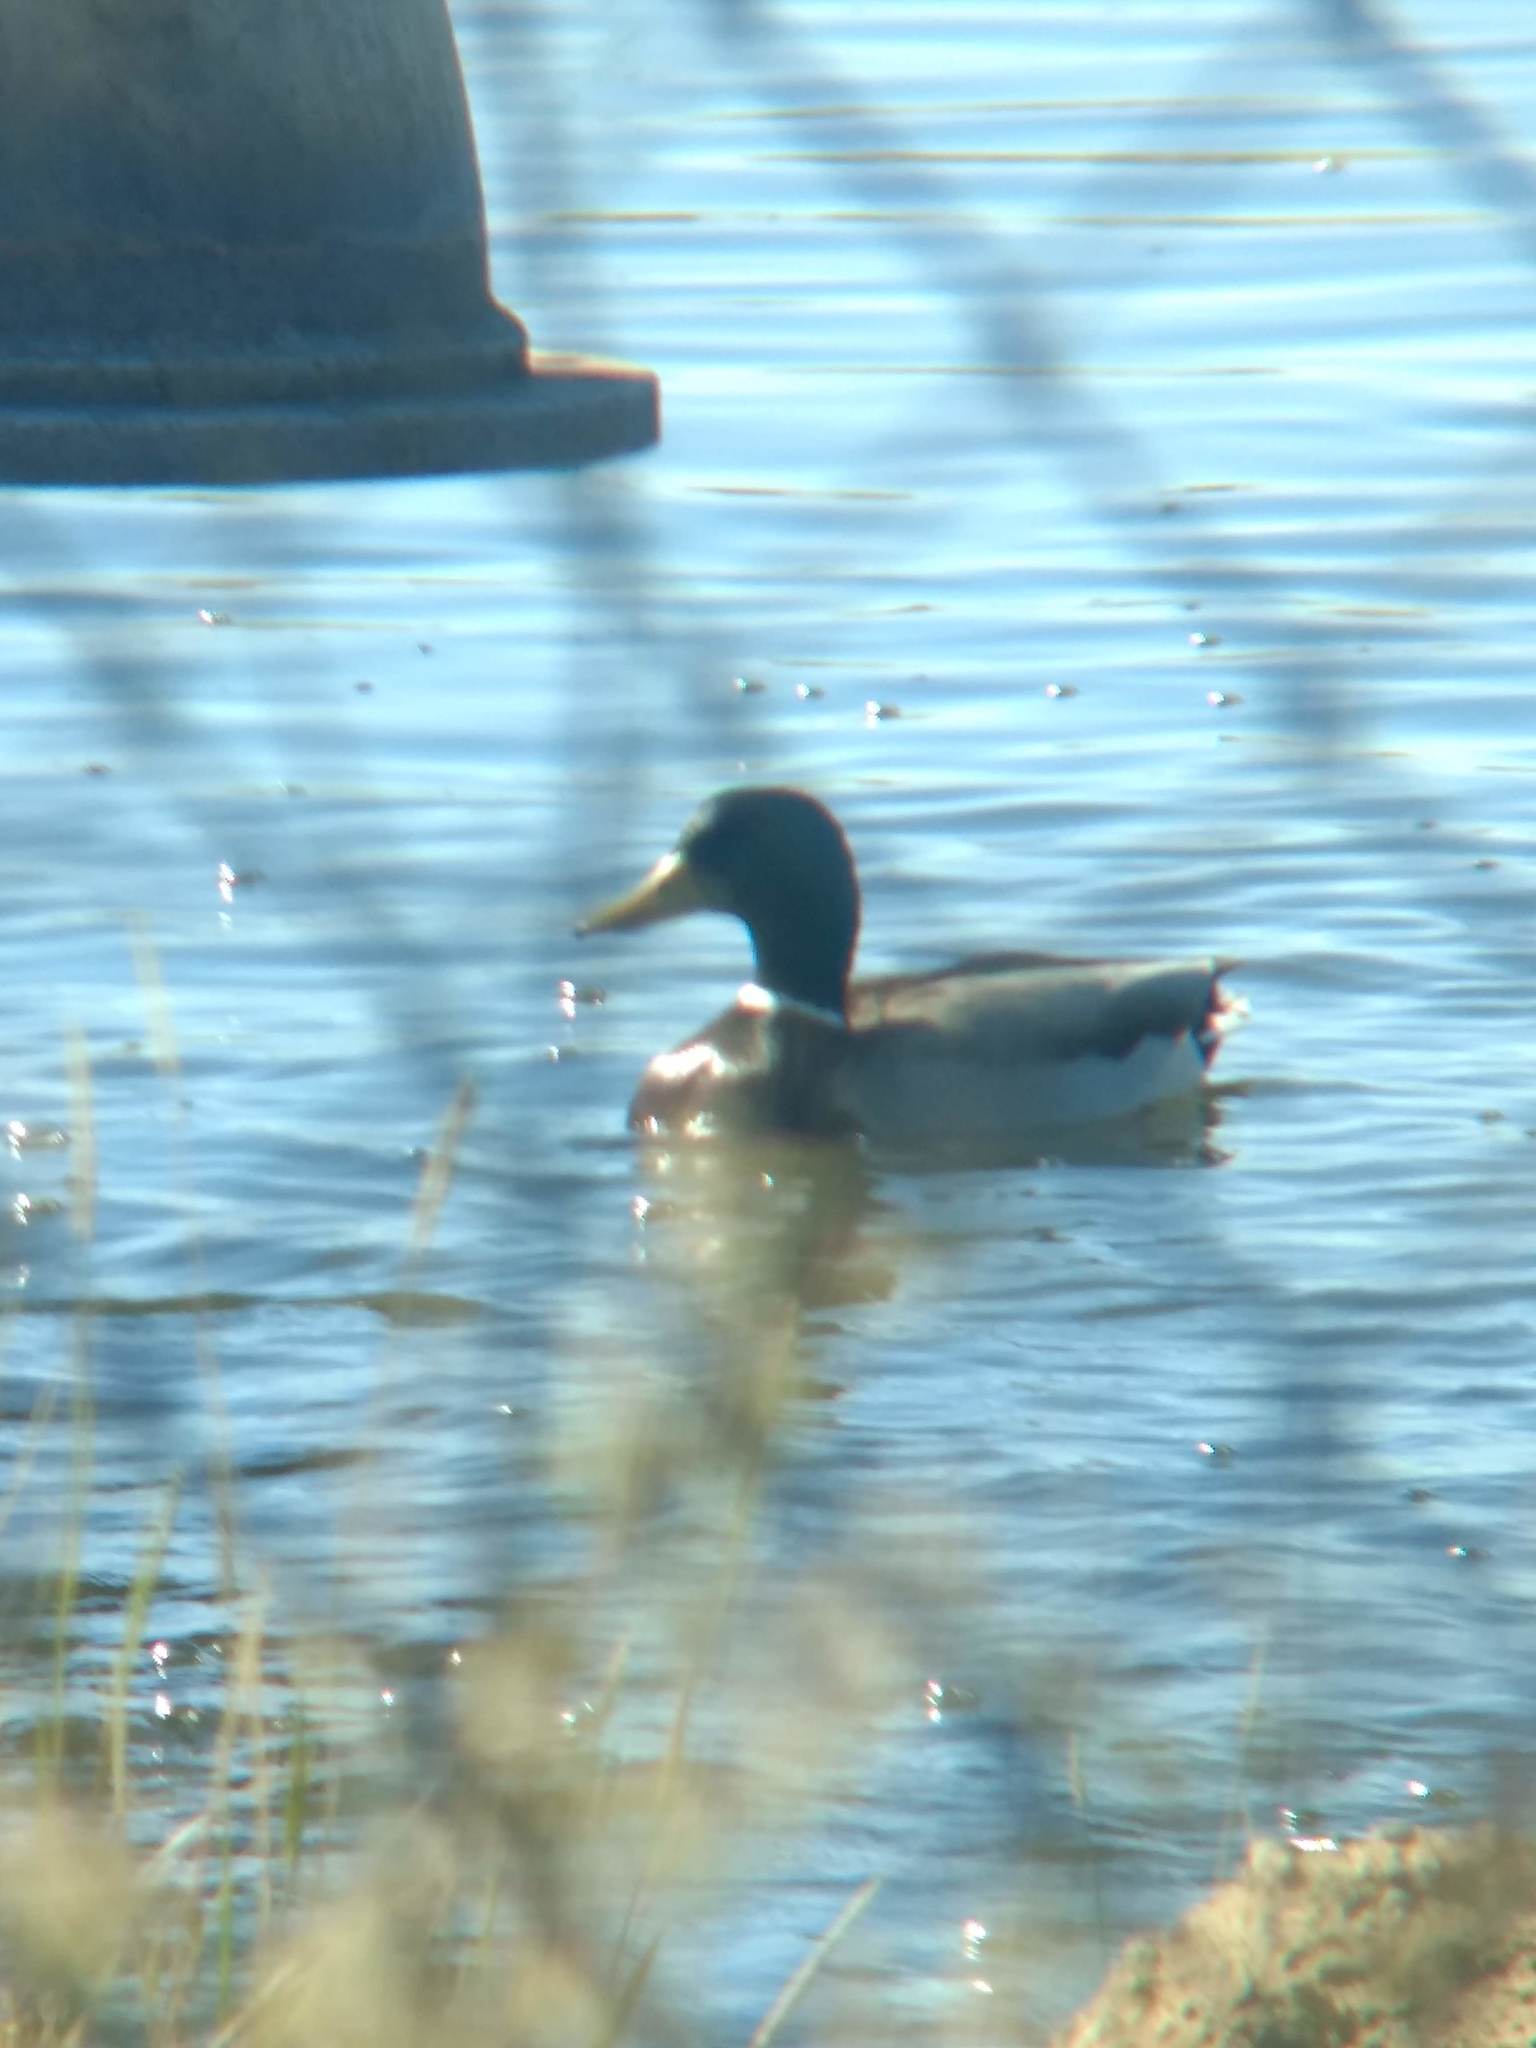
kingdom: Animalia
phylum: Chordata
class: Aves
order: Anseriformes
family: Anatidae
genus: Anas
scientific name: Anas platyrhynchos
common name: Mallard
